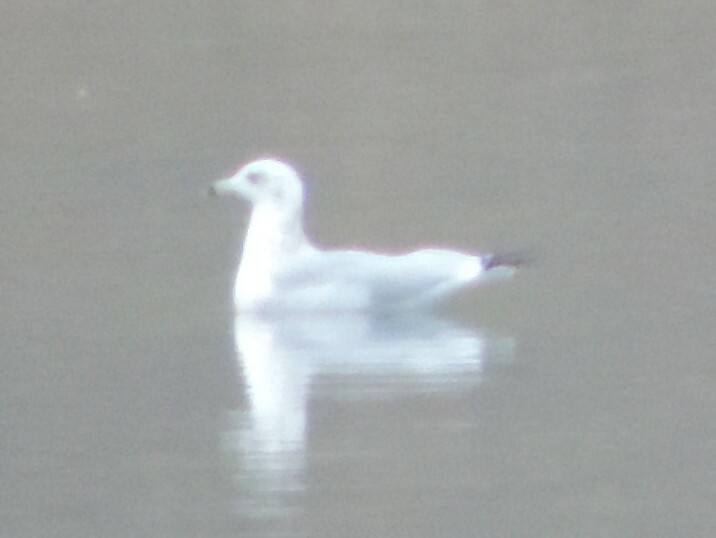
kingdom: Animalia
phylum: Chordata
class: Aves
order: Charadriiformes
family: Laridae
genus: Larus
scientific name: Larus delawarensis
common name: Ring-billed gull
